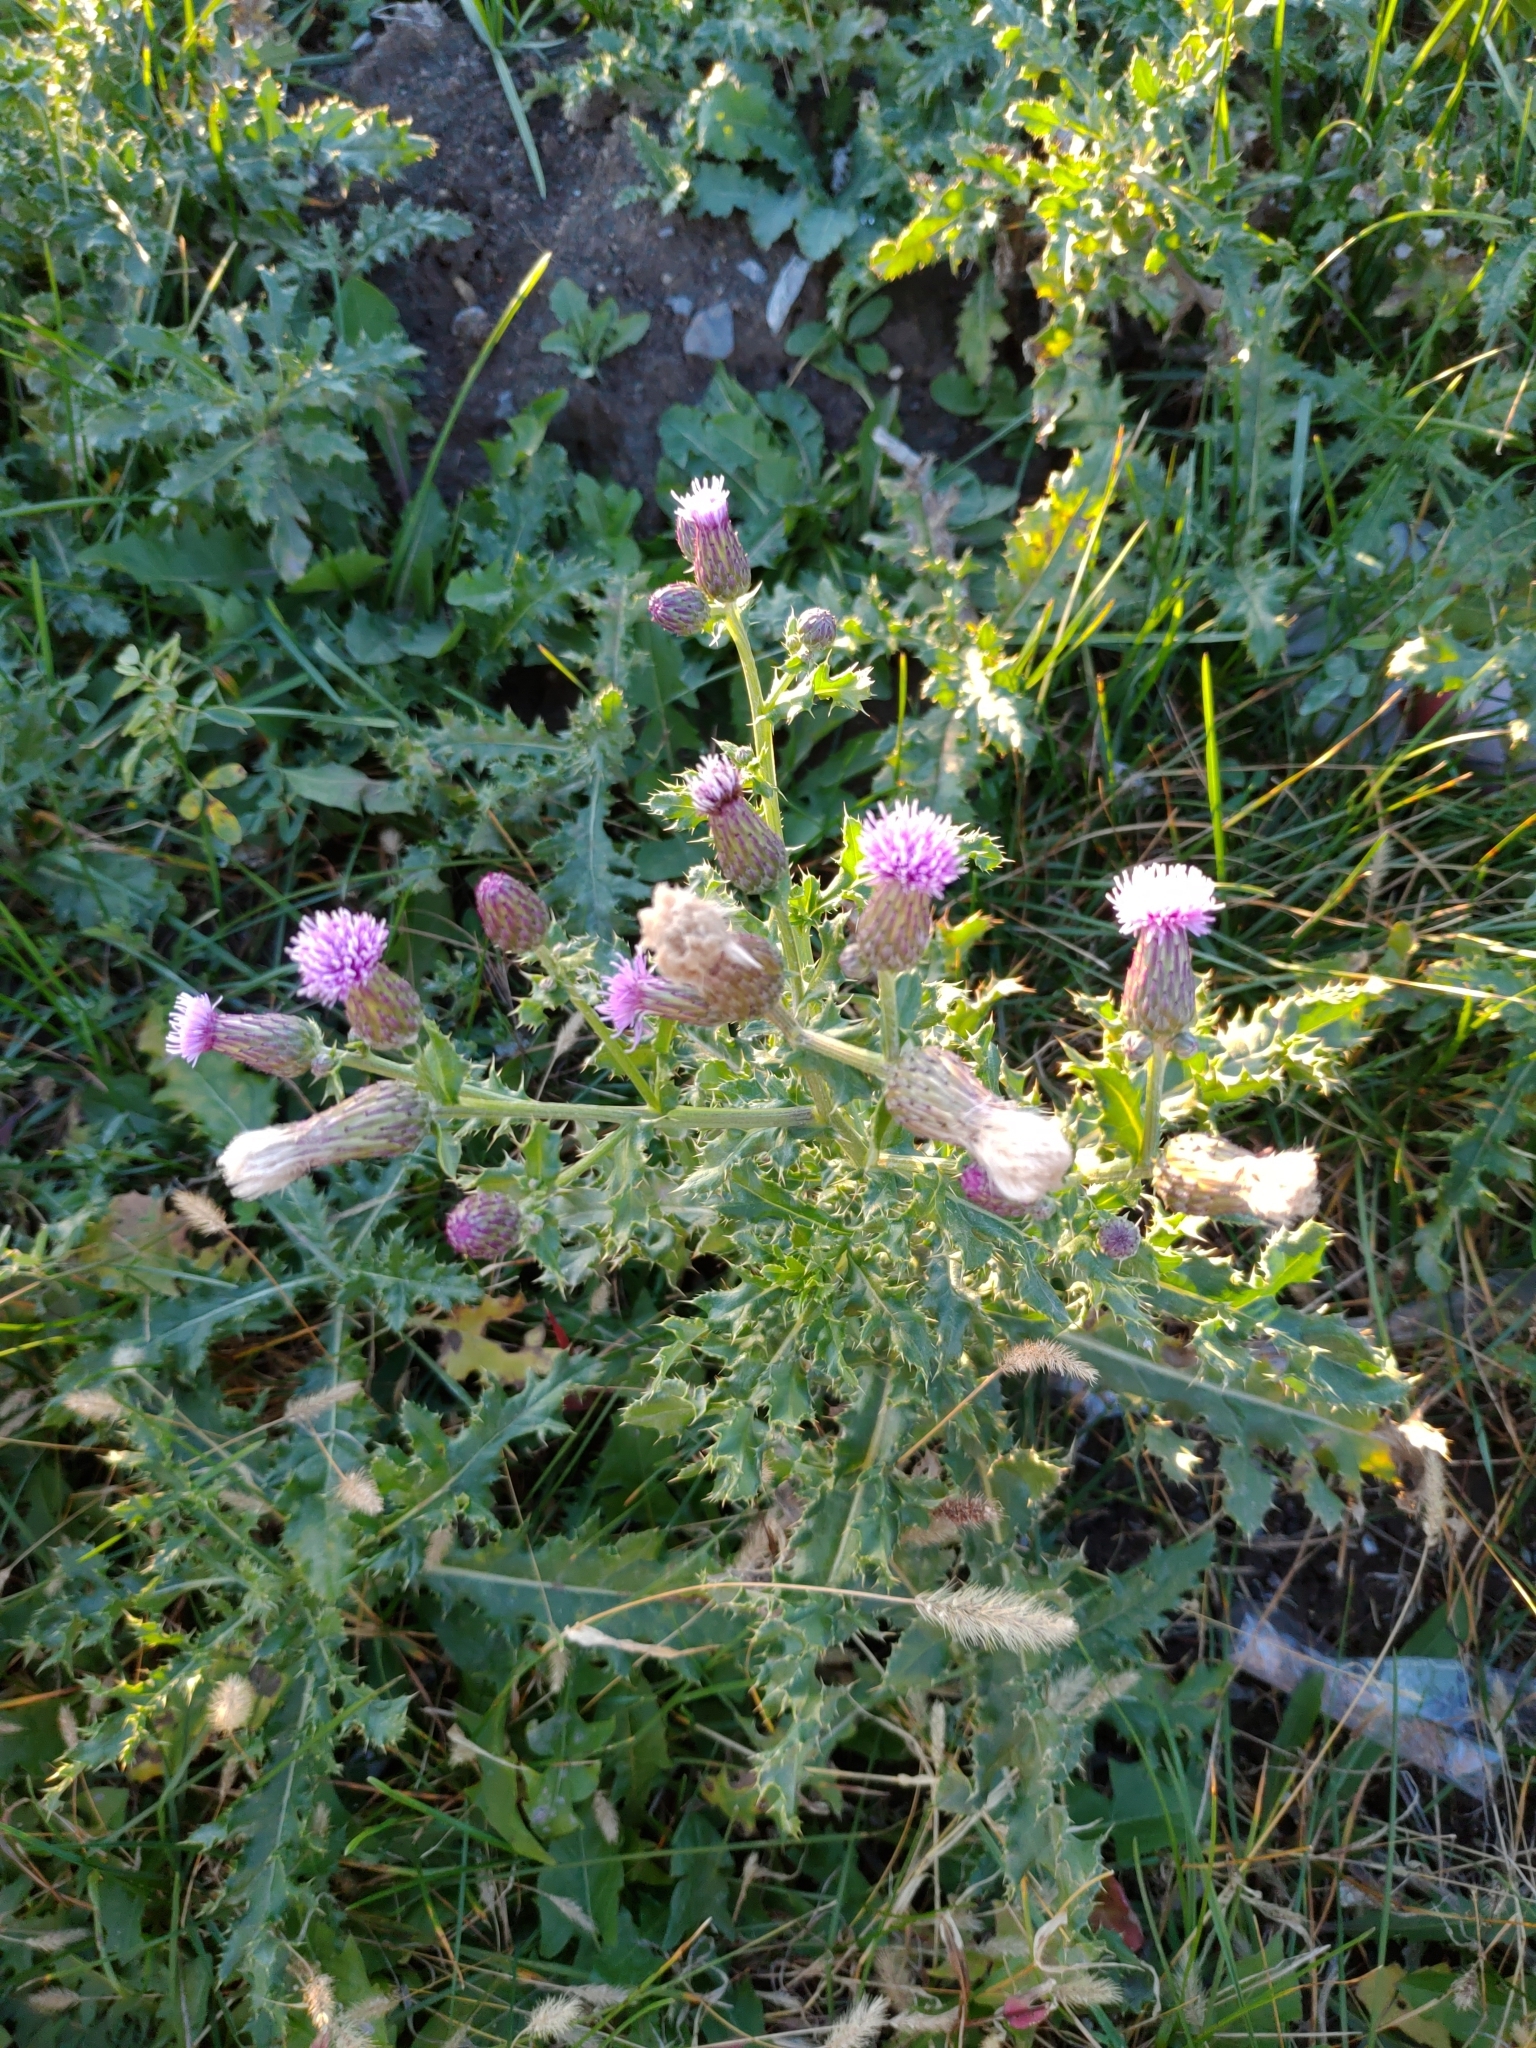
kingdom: Plantae
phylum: Tracheophyta
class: Magnoliopsida
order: Asterales
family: Asteraceae
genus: Cirsium
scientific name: Cirsium arvense
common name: Creeping thistle
